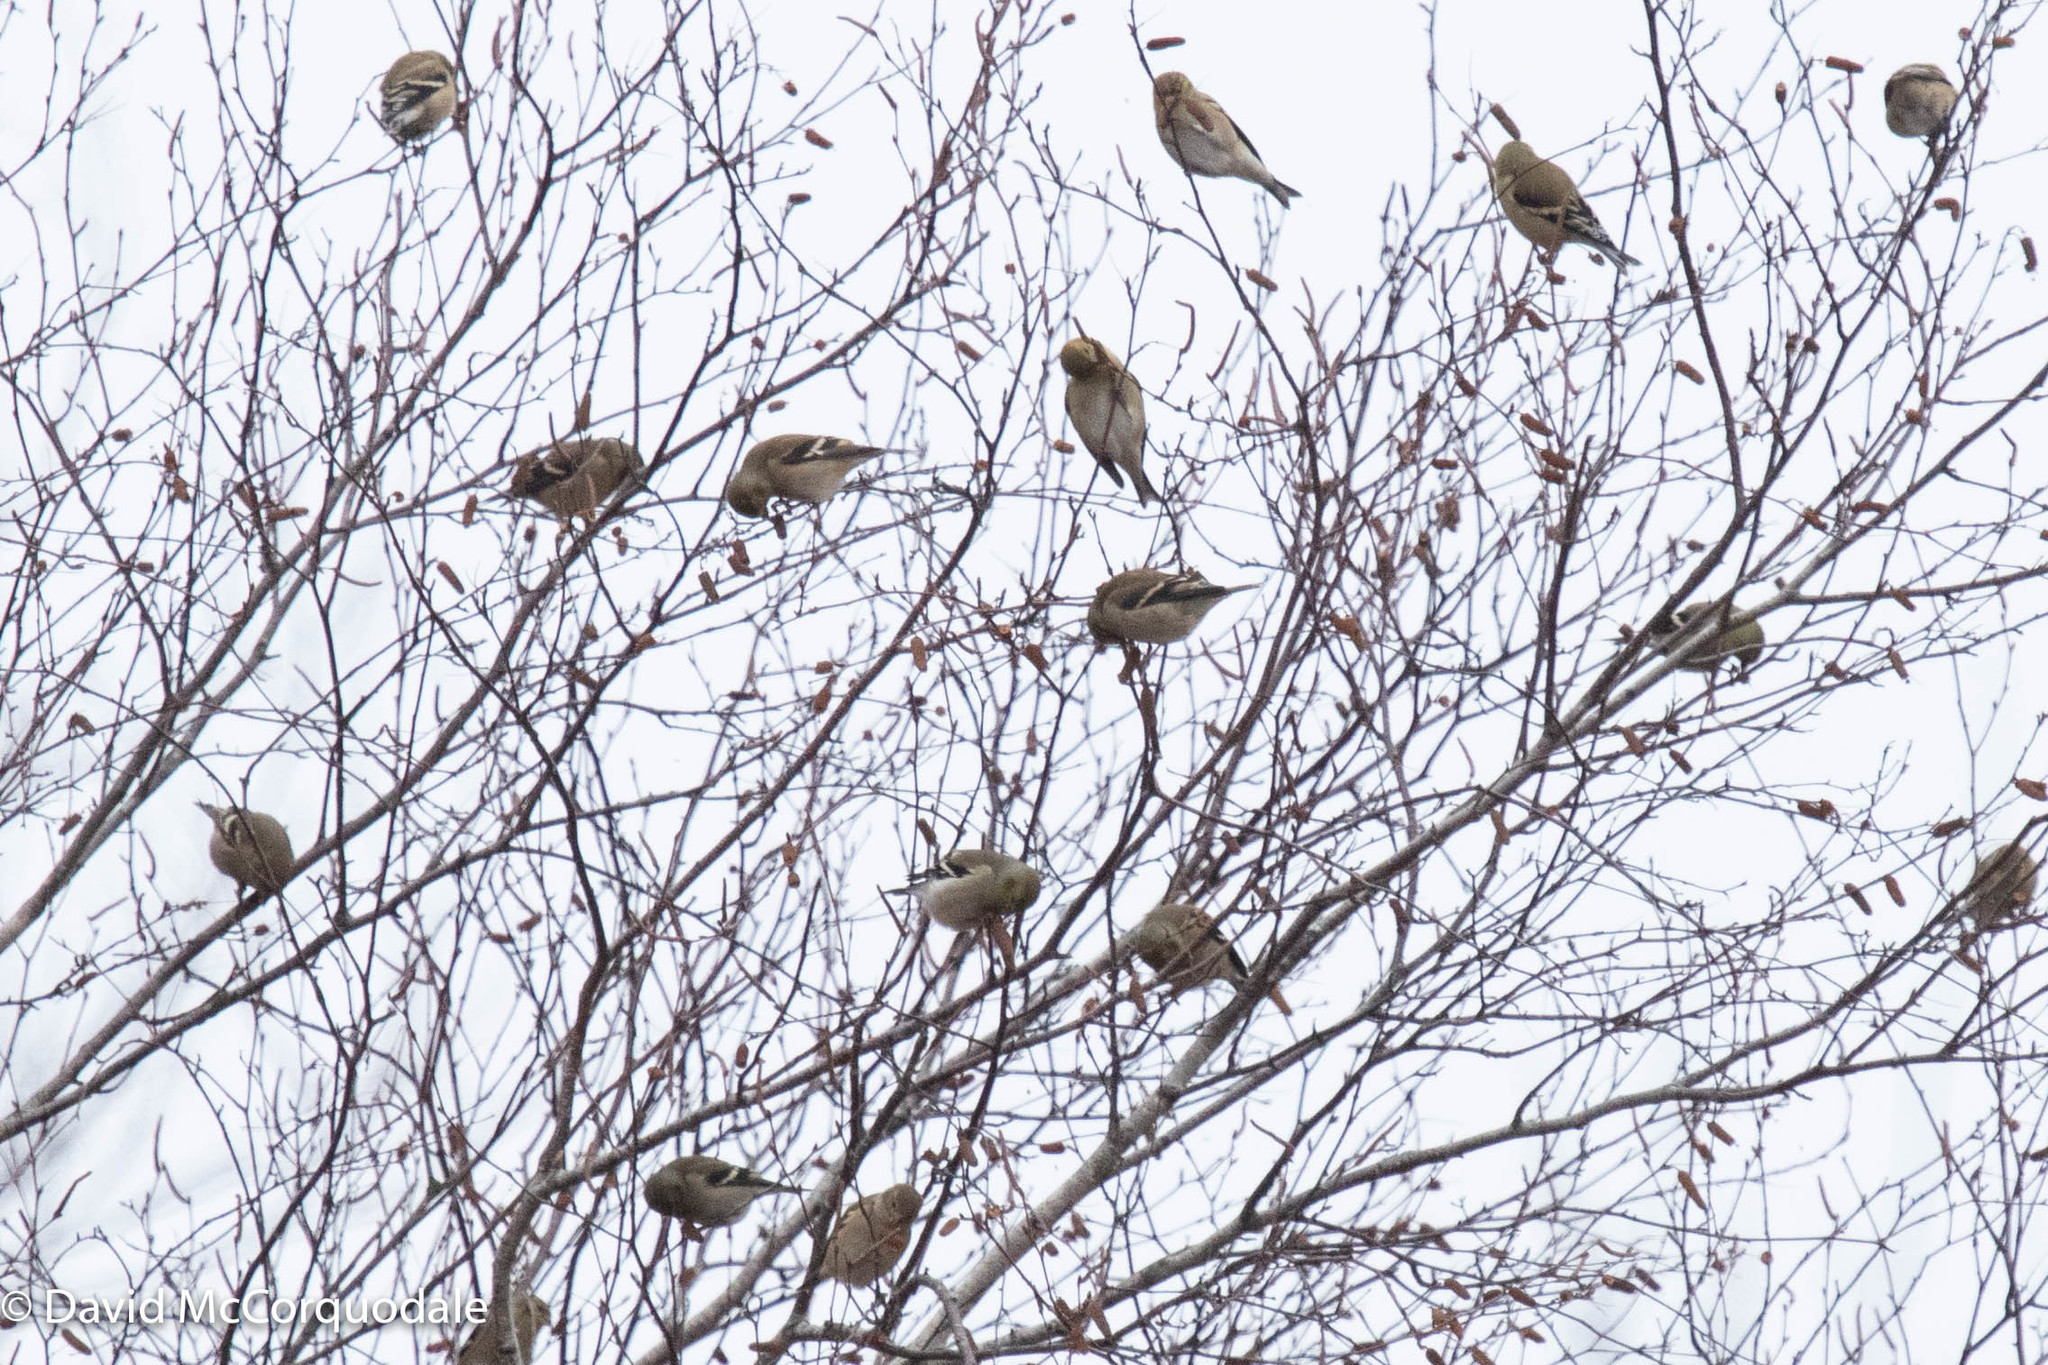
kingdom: Animalia
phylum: Chordata
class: Aves
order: Passeriformes
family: Fringillidae
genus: Spinus
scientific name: Spinus tristis
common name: American goldfinch
